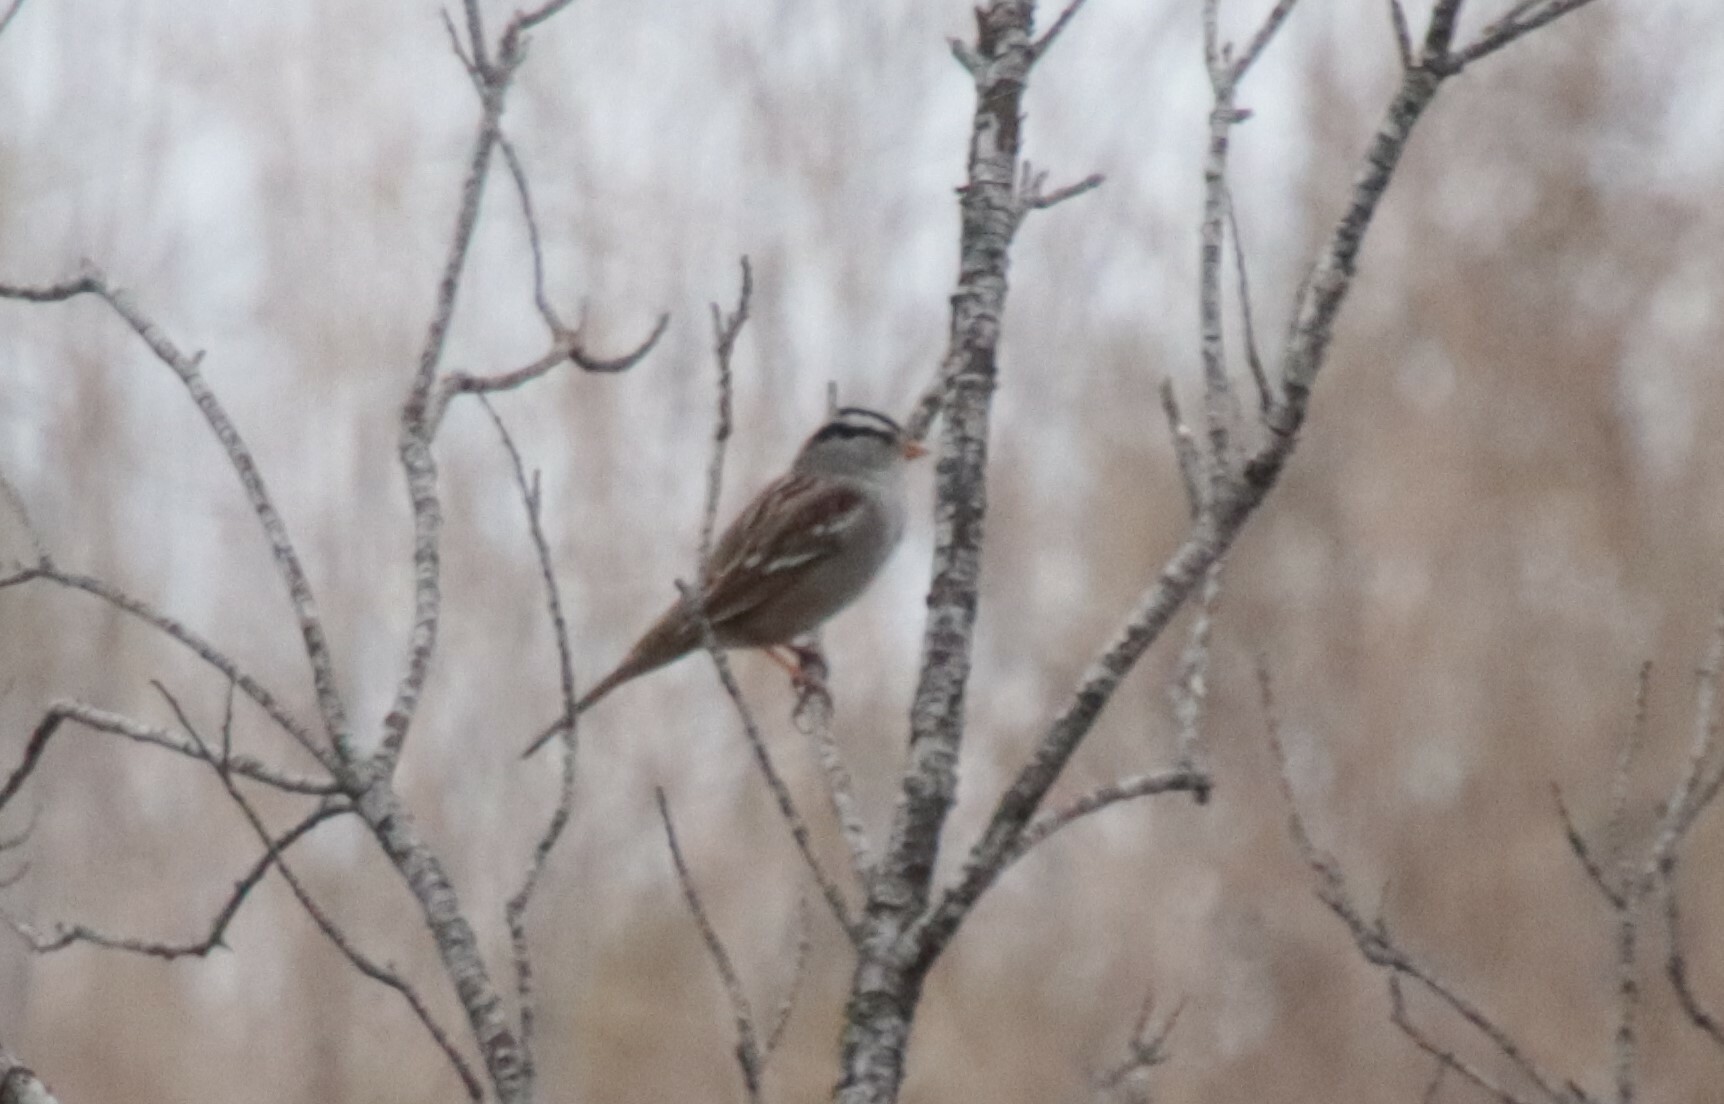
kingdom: Animalia
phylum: Chordata
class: Aves
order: Passeriformes
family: Passerellidae
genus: Zonotrichia
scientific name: Zonotrichia leucophrys
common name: White-crowned sparrow
